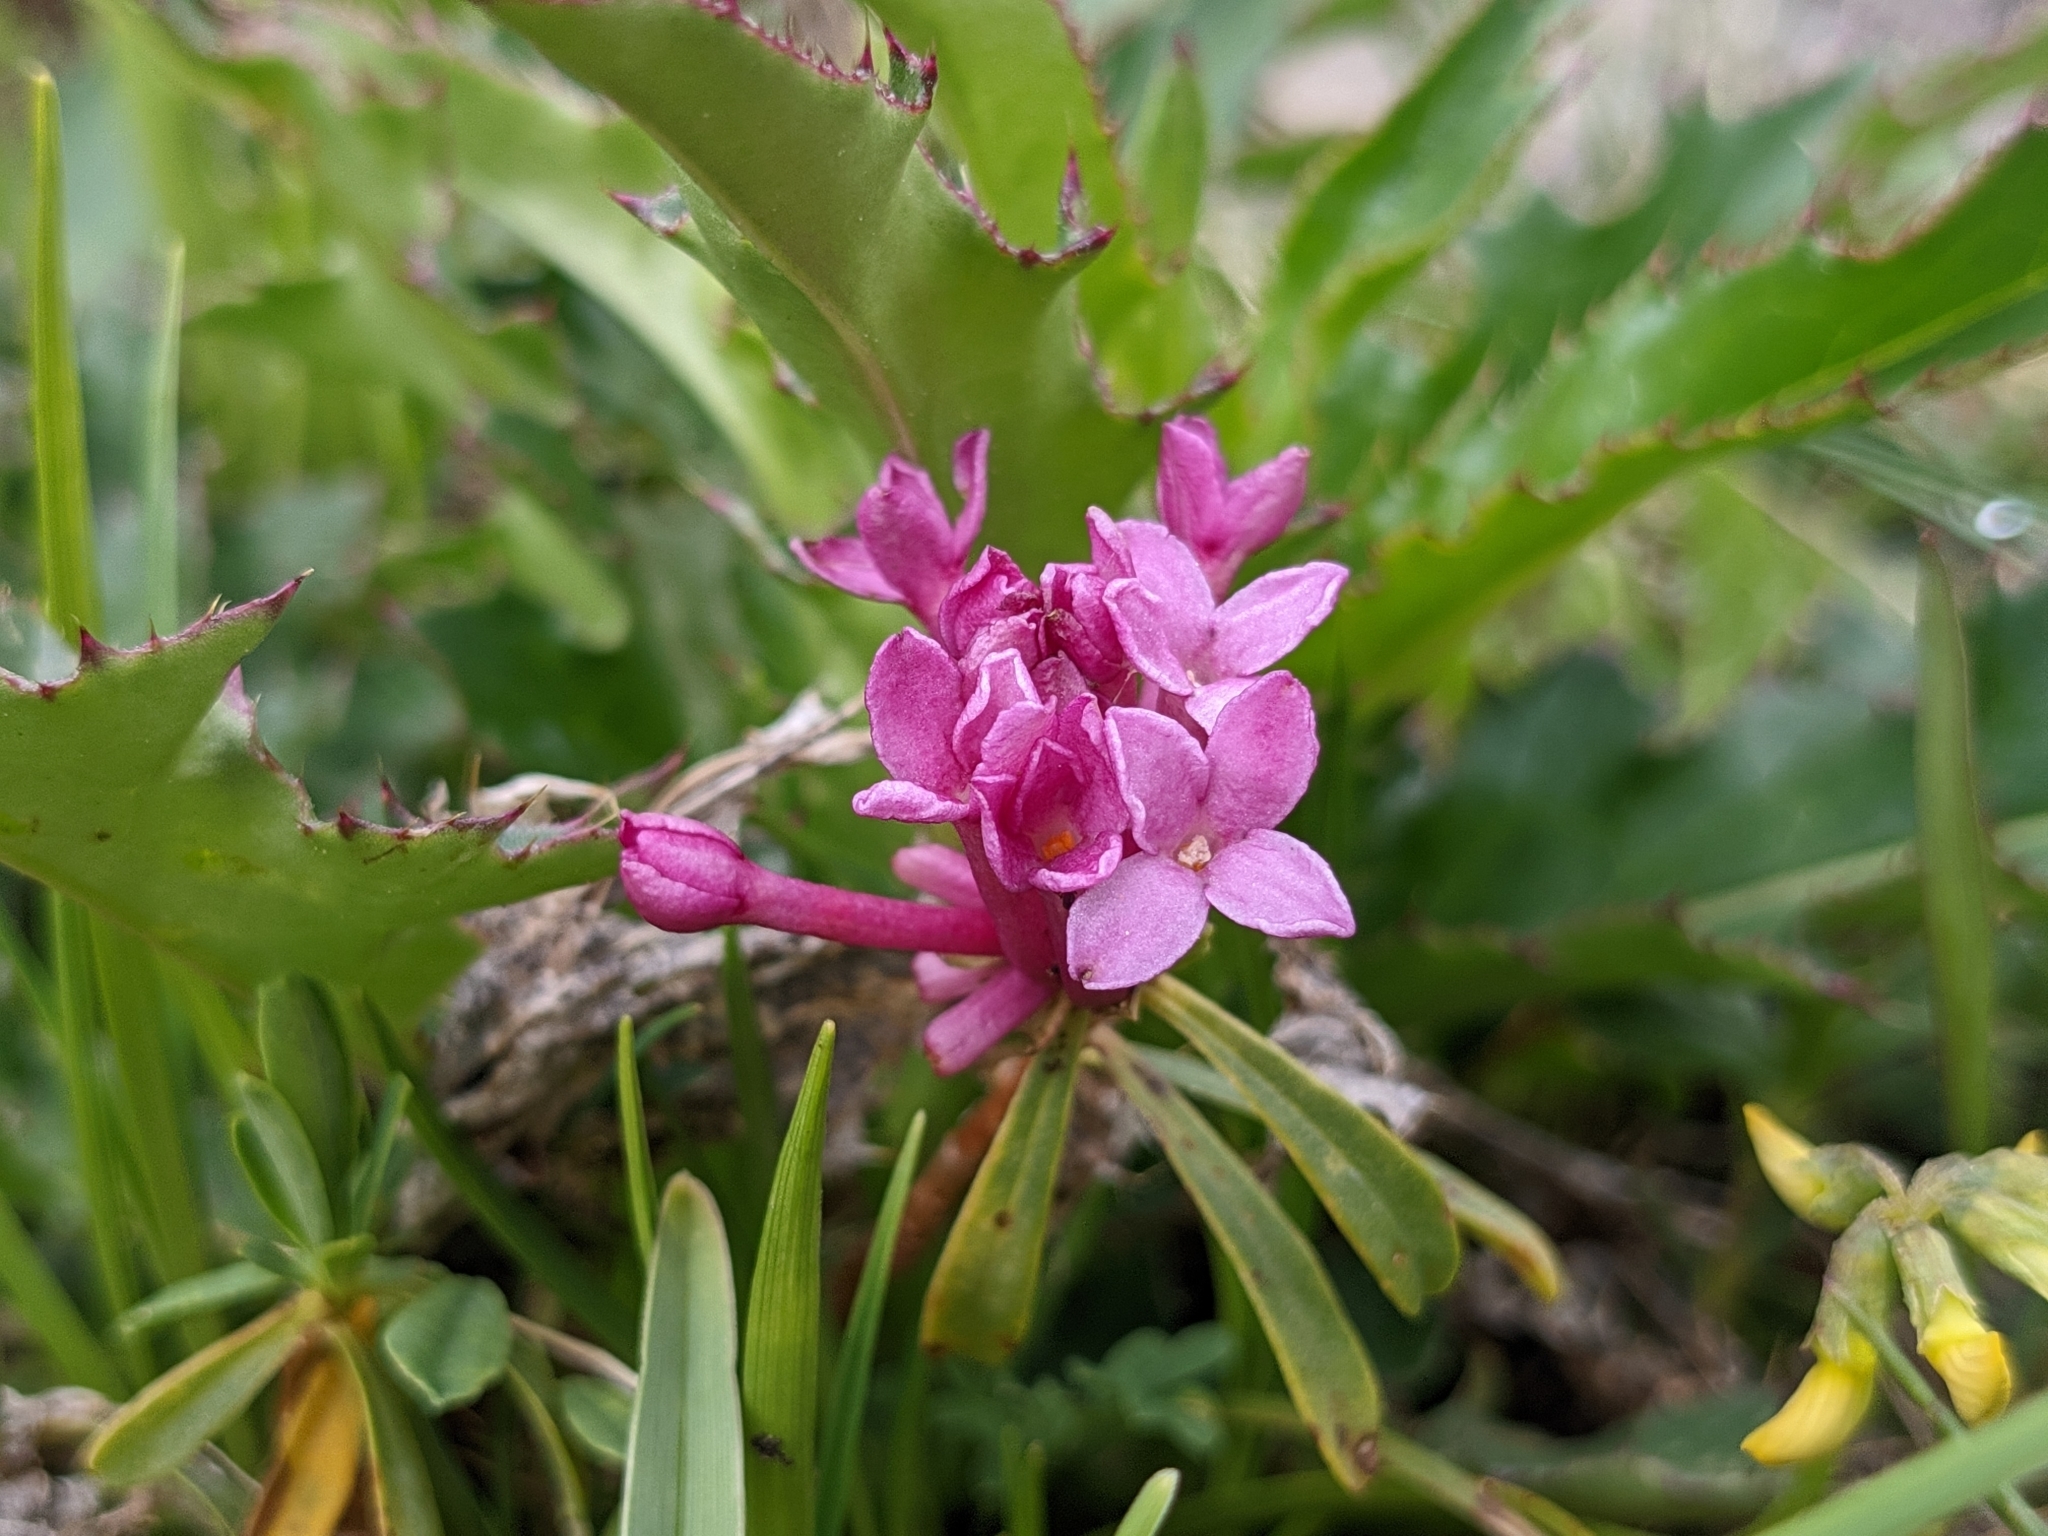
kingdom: Plantae
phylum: Tracheophyta
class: Magnoliopsida
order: Malvales
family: Thymelaeaceae
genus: Daphne
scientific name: Daphne striata
